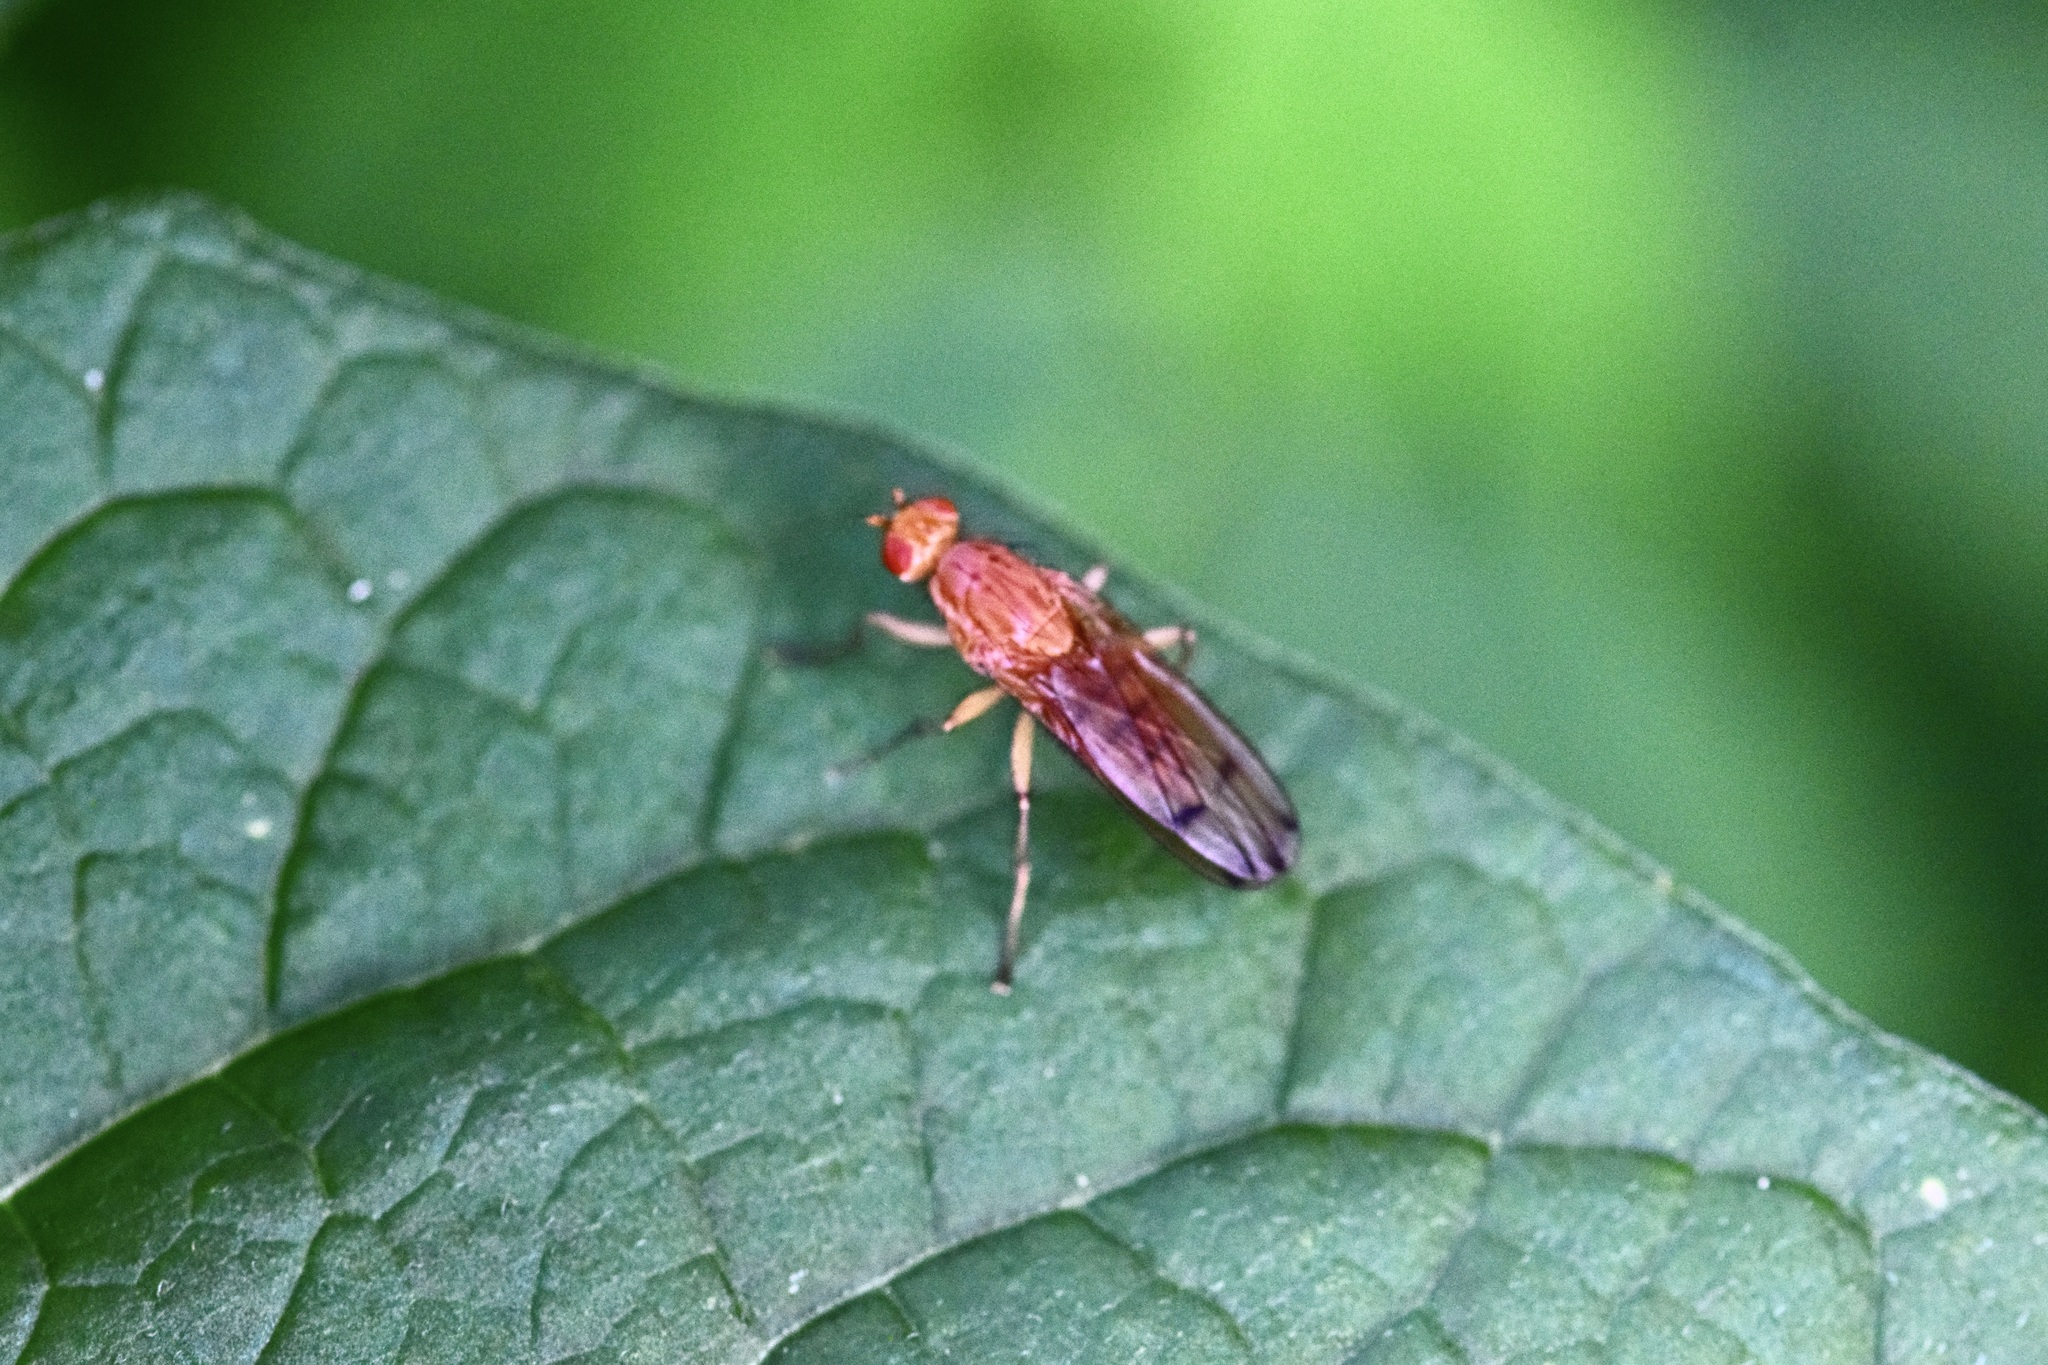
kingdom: Animalia
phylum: Arthropoda
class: Insecta
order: Diptera
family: Heleomyzidae
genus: Amoebaleria
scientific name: Amoebaleria helvola
